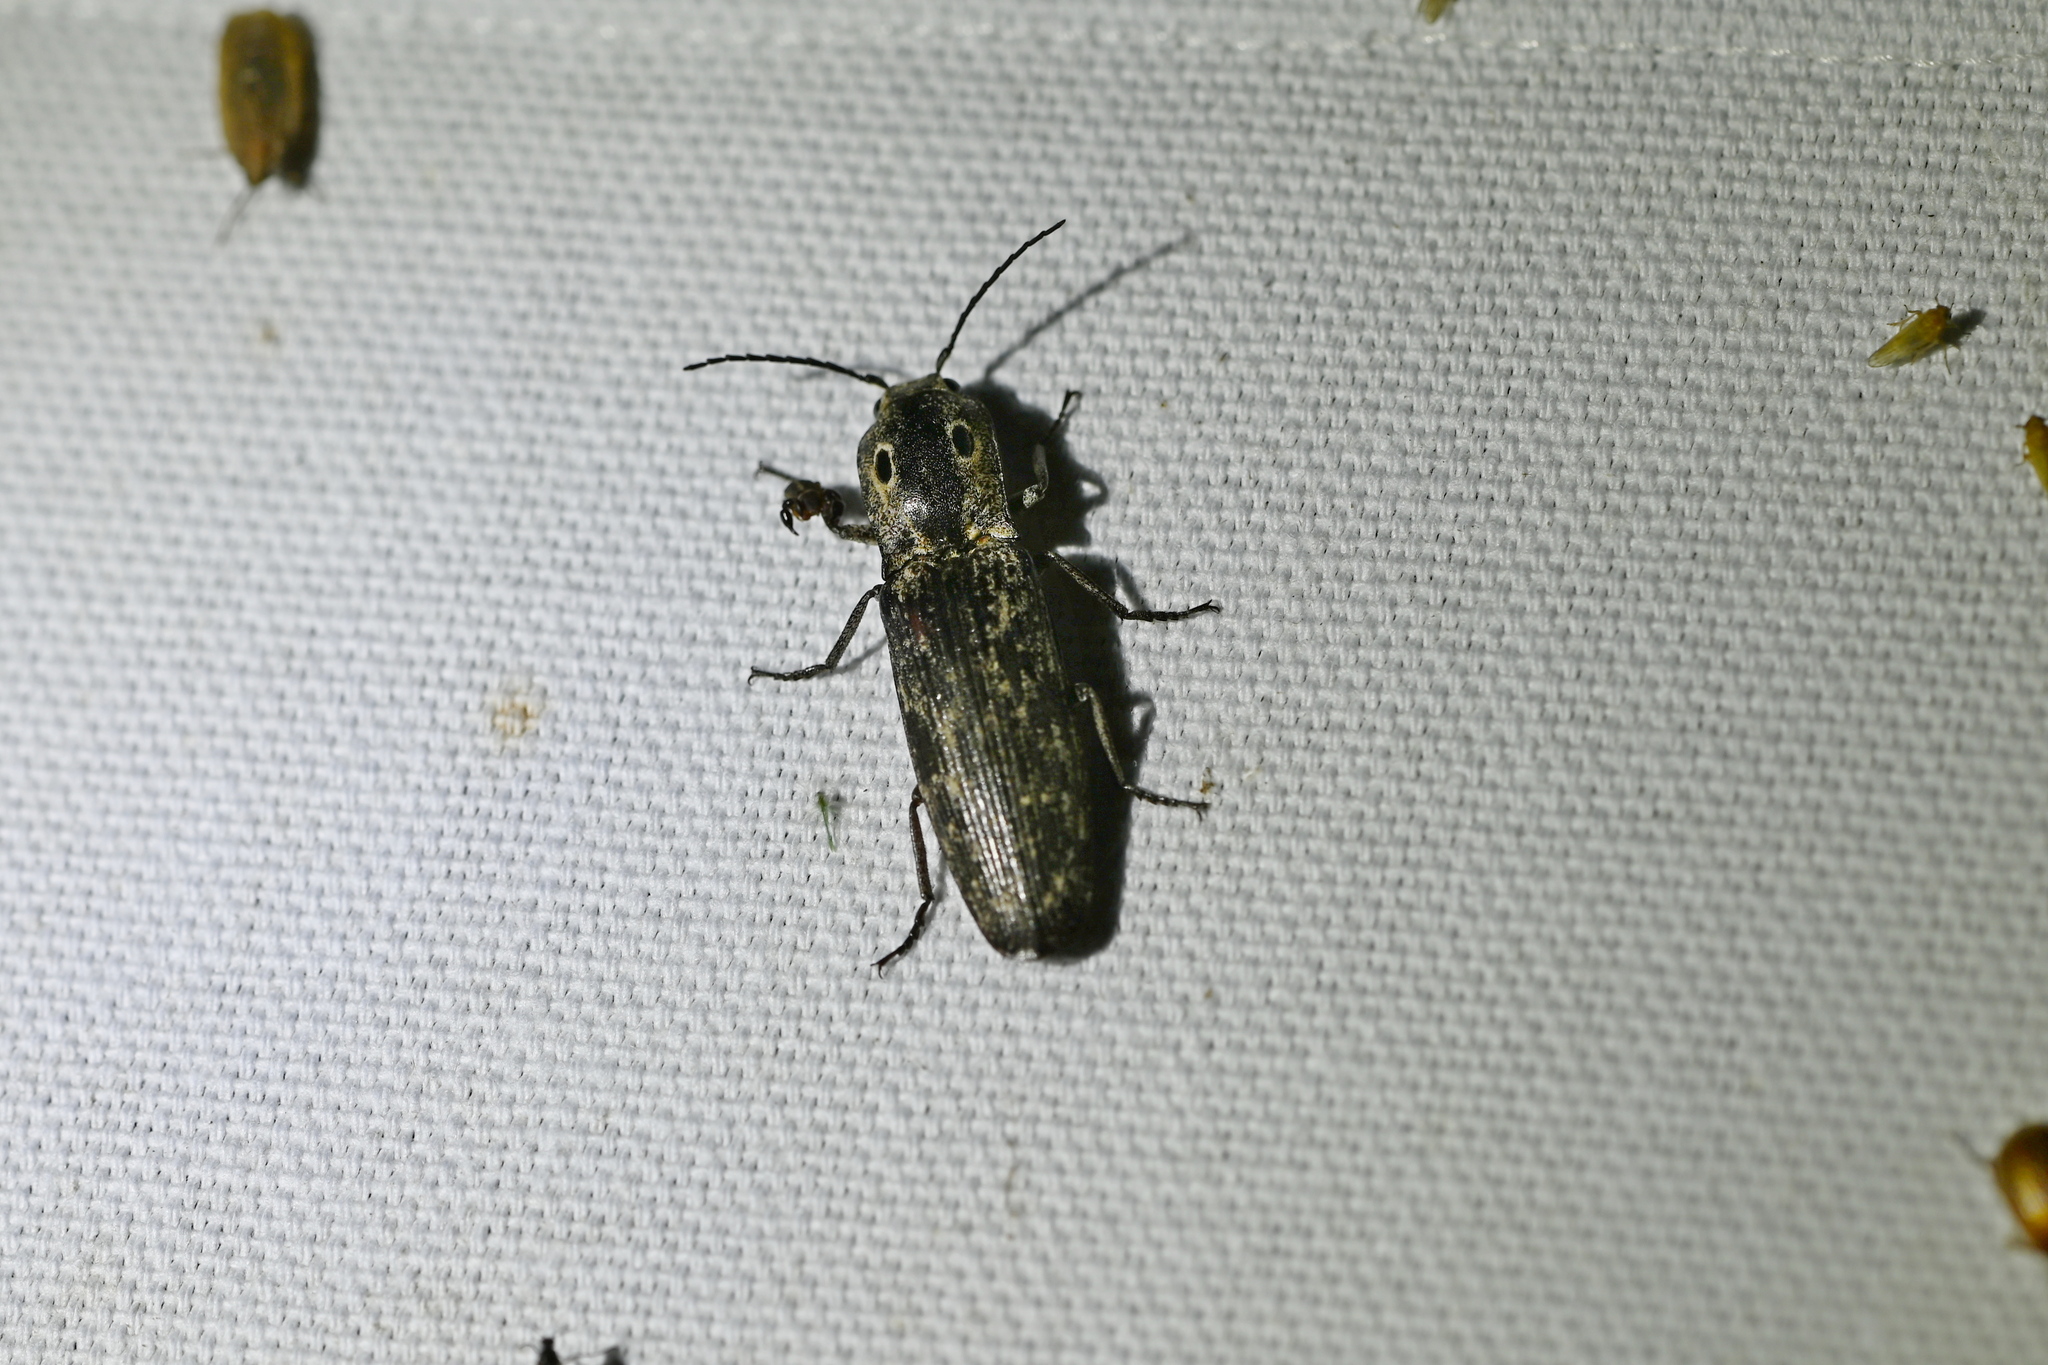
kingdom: Animalia
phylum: Arthropoda
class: Insecta
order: Coleoptera
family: Elateridae
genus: Alaus
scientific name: Alaus myops
